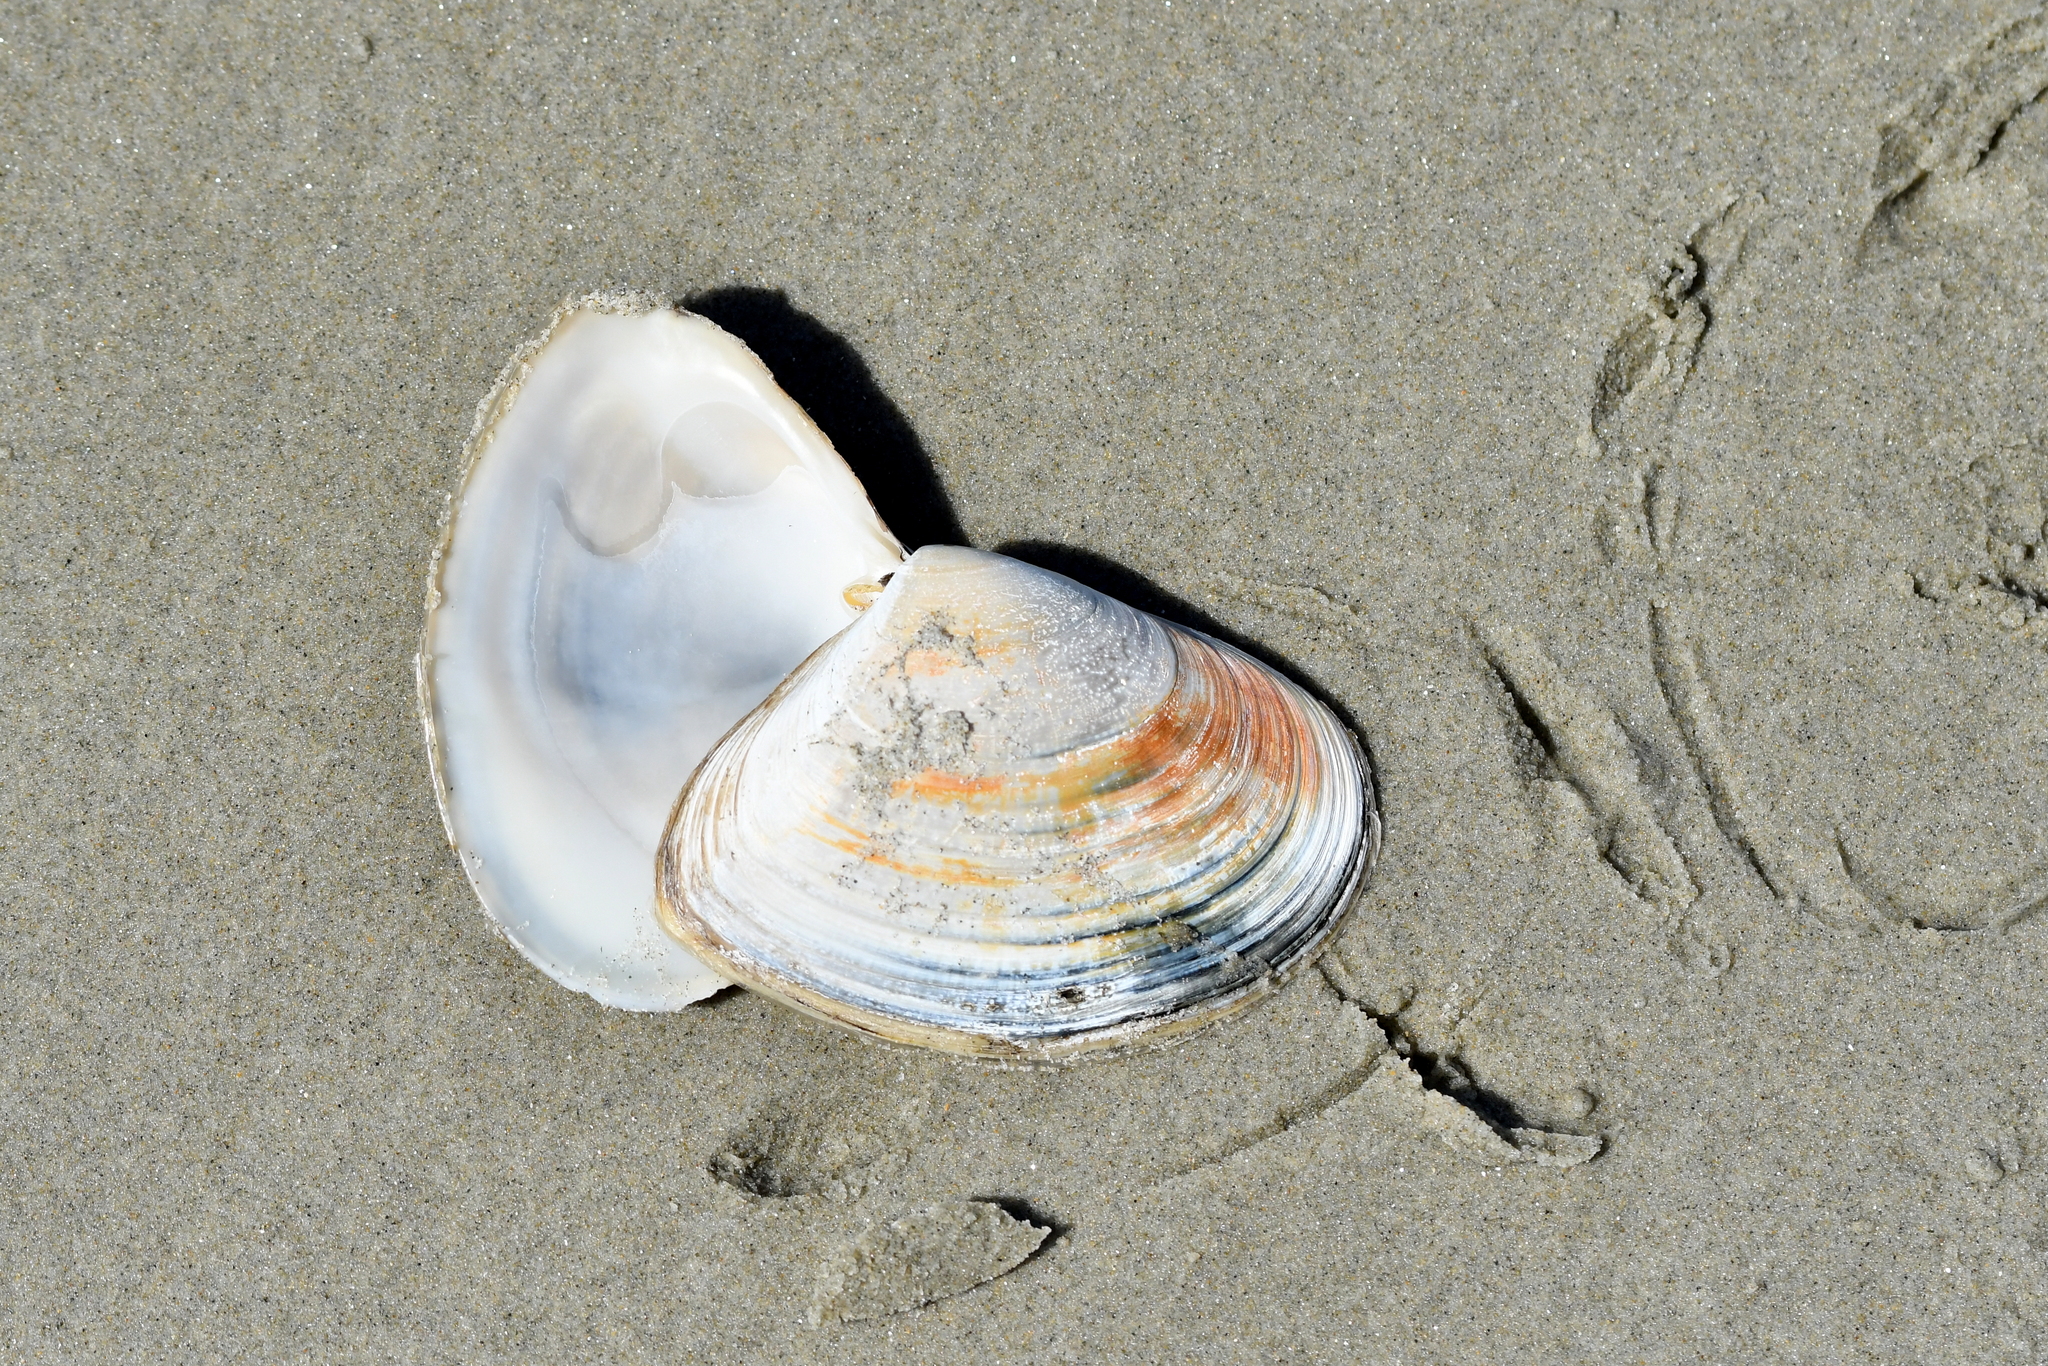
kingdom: Animalia
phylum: Mollusca
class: Bivalvia
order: Venerida
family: Mesodesmatidae
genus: Paphies
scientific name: Paphies donacina
